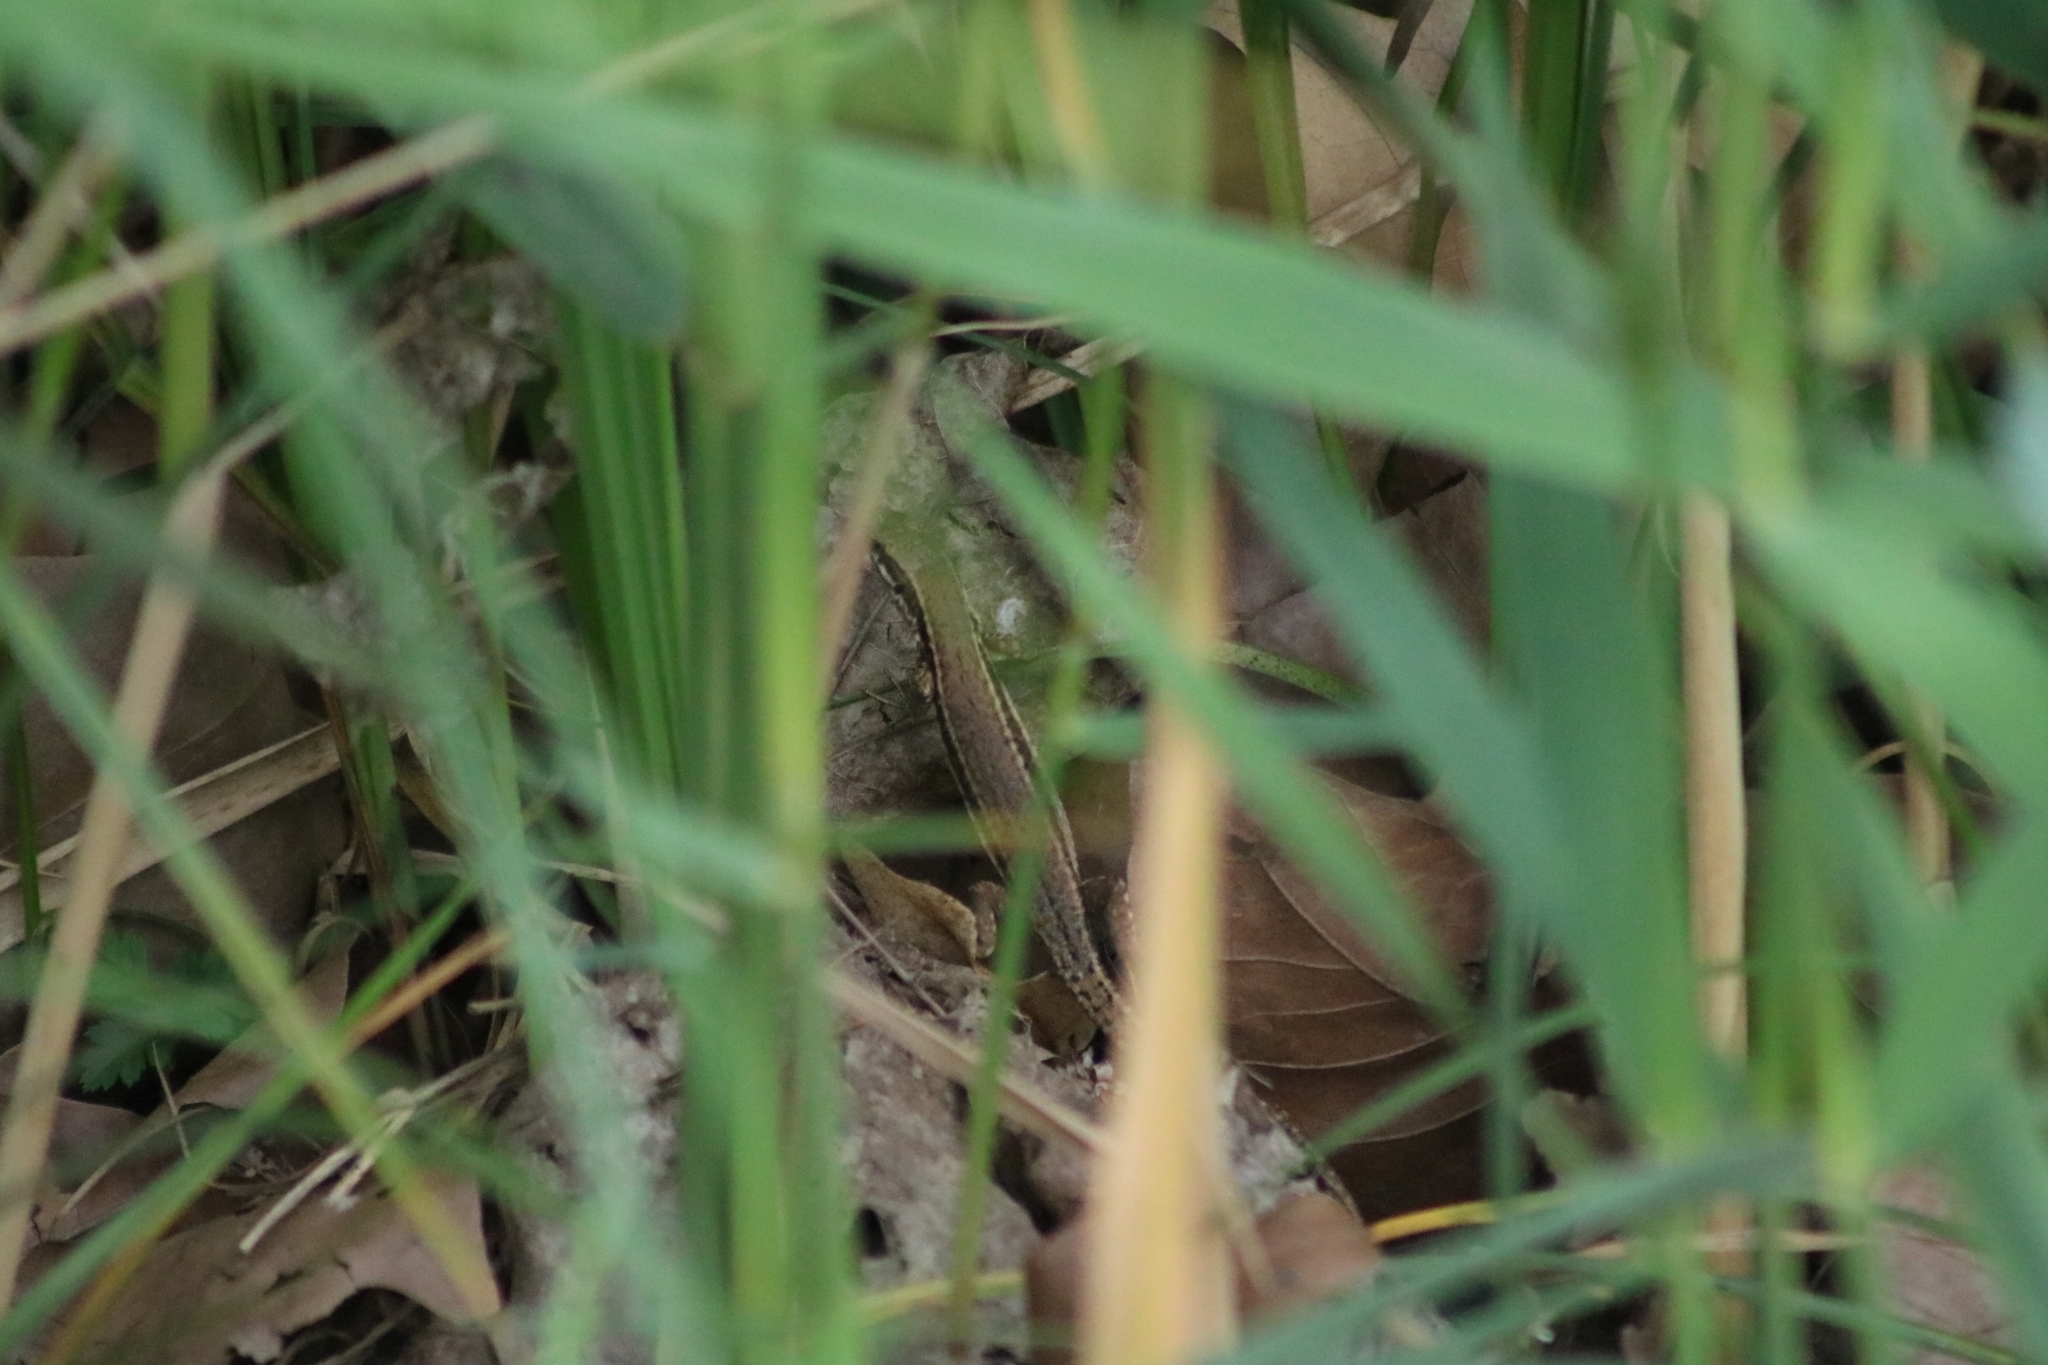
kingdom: Animalia
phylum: Chordata
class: Squamata
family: Lacertidae
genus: Podarcis
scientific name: Podarcis muralis
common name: Common wall lizard
